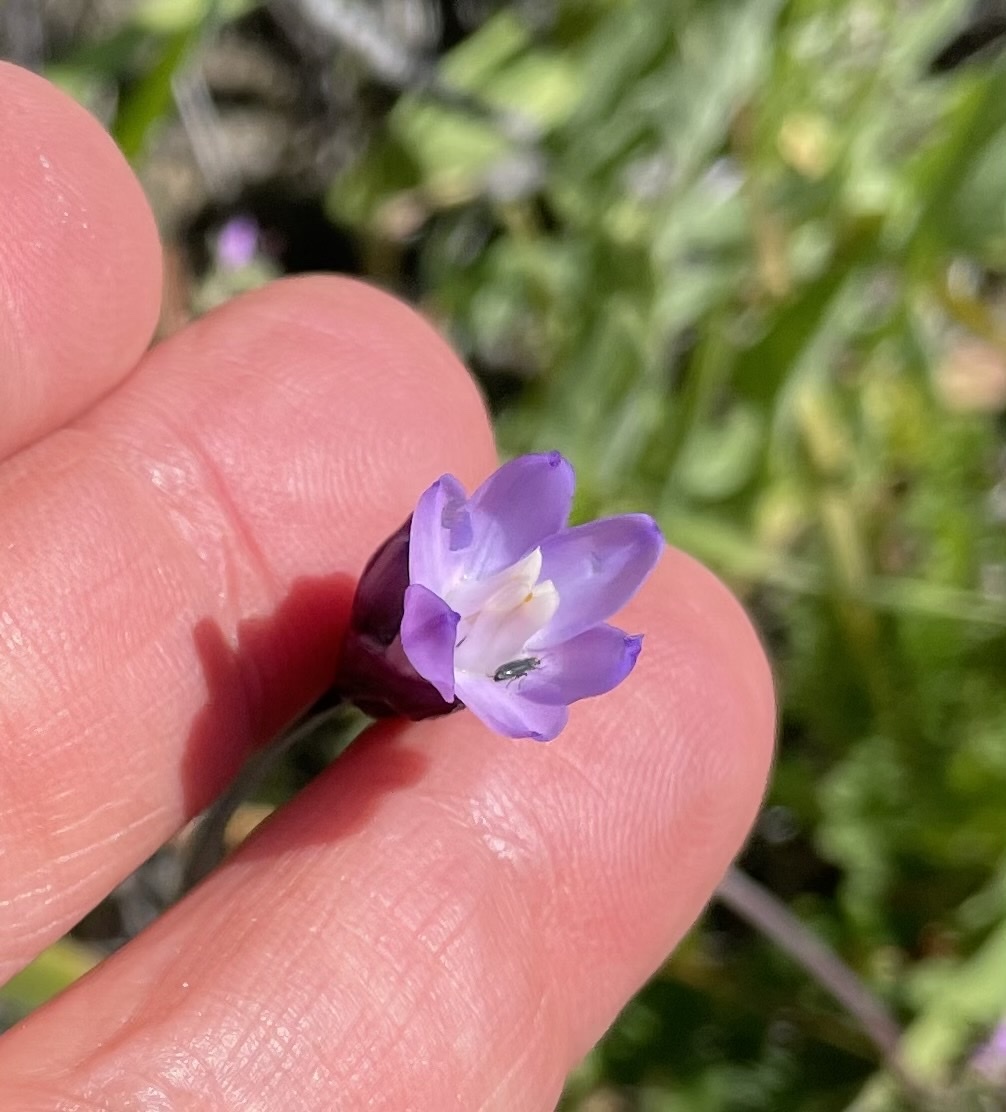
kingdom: Plantae
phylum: Tracheophyta
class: Liliopsida
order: Asparagales
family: Asparagaceae
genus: Dipterostemon
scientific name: Dipterostemon capitatus
